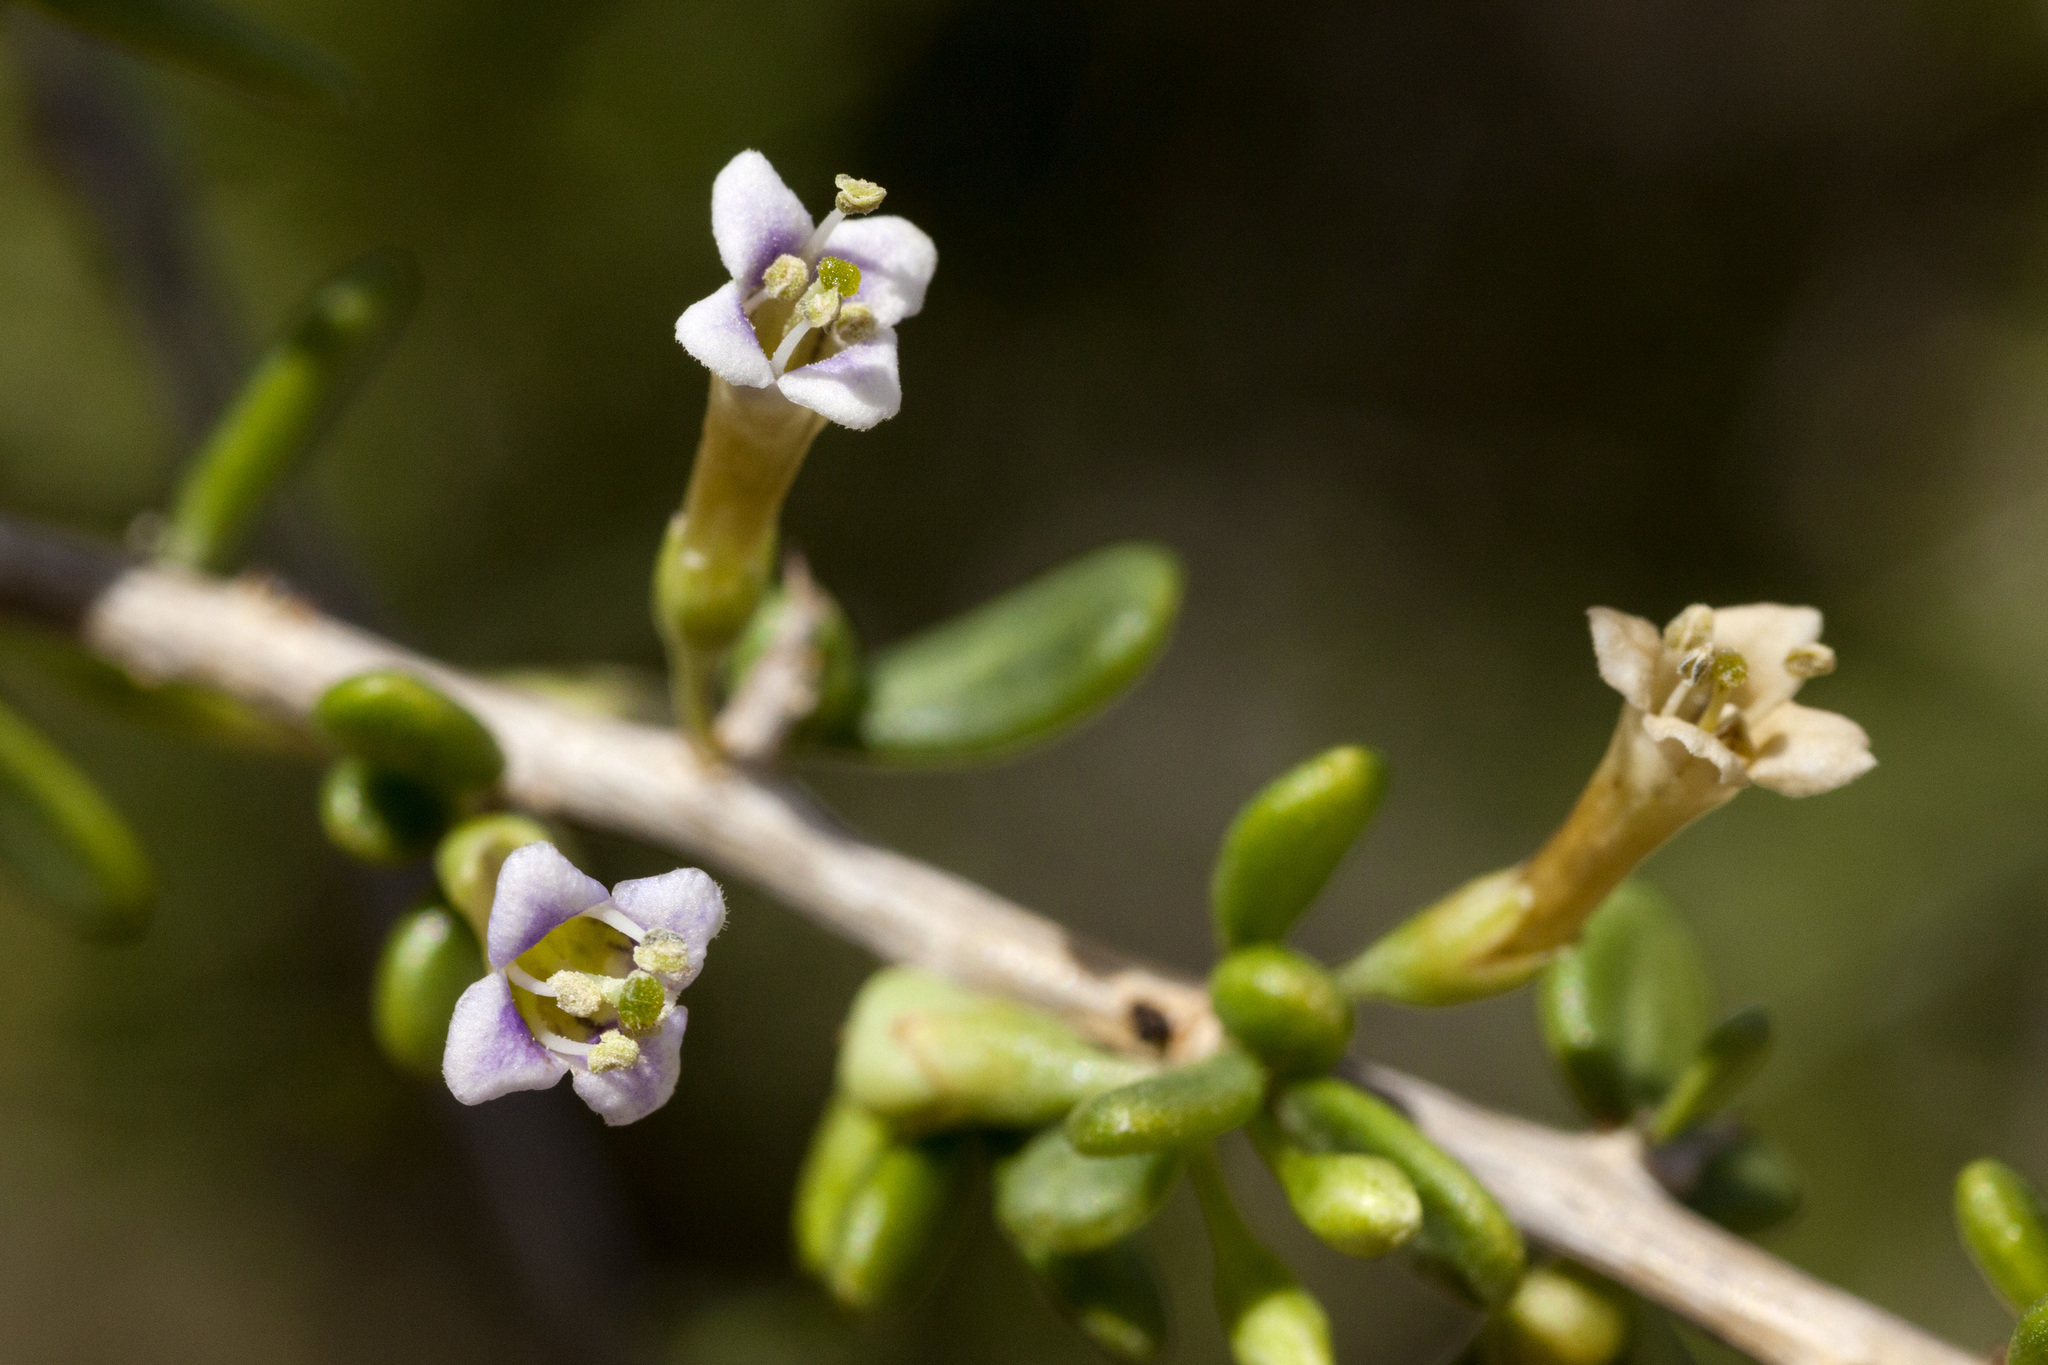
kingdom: Plantae
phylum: Tracheophyta
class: Magnoliopsida
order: Solanales
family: Solanaceae
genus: Lycium
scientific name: Lycium californicum
